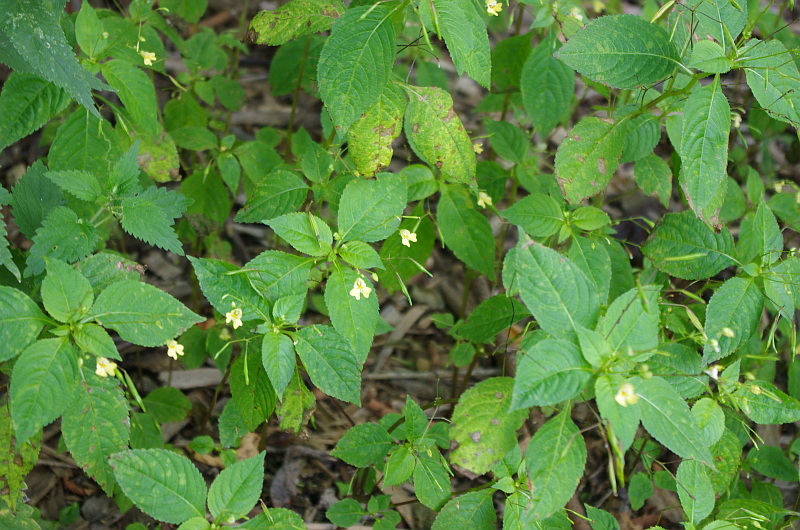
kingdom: Plantae
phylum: Tracheophyta
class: Magnoliopsida
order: Ericales
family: Balsaminaceae
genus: Impatiens
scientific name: Impatiens parviflora
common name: Small balsam
